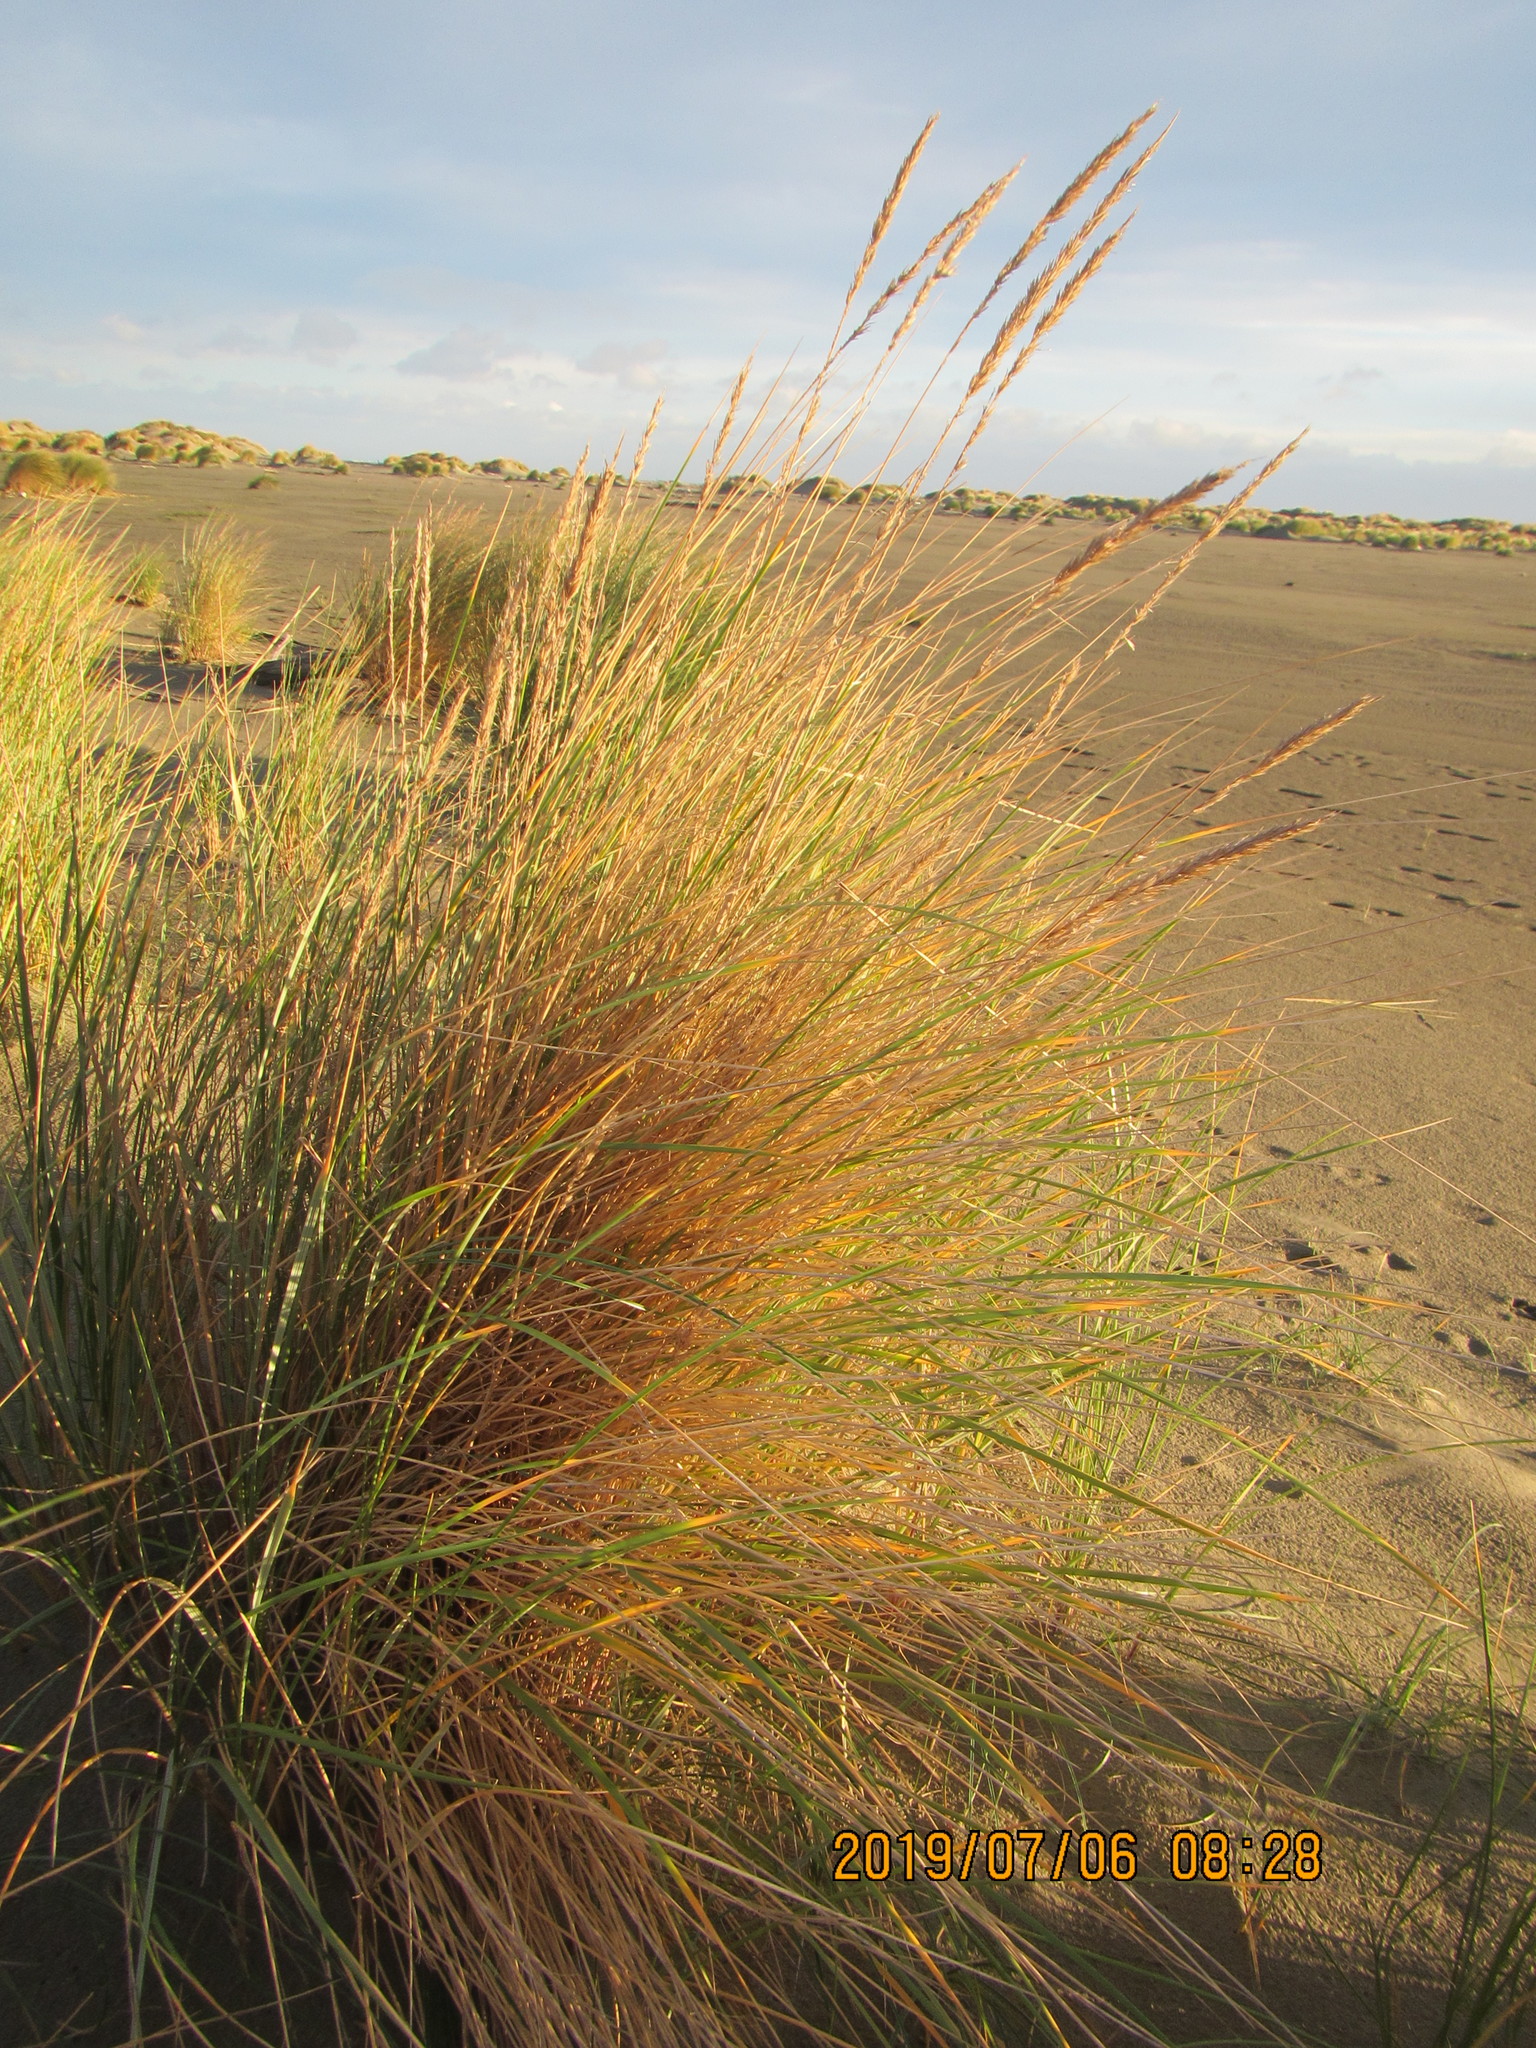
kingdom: Plantae
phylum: Tracheophyta
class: Liliopsida
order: Poales
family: Poaceae
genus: Calamagrostis
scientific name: Calamagrostis arenaria
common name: European beachgrass
